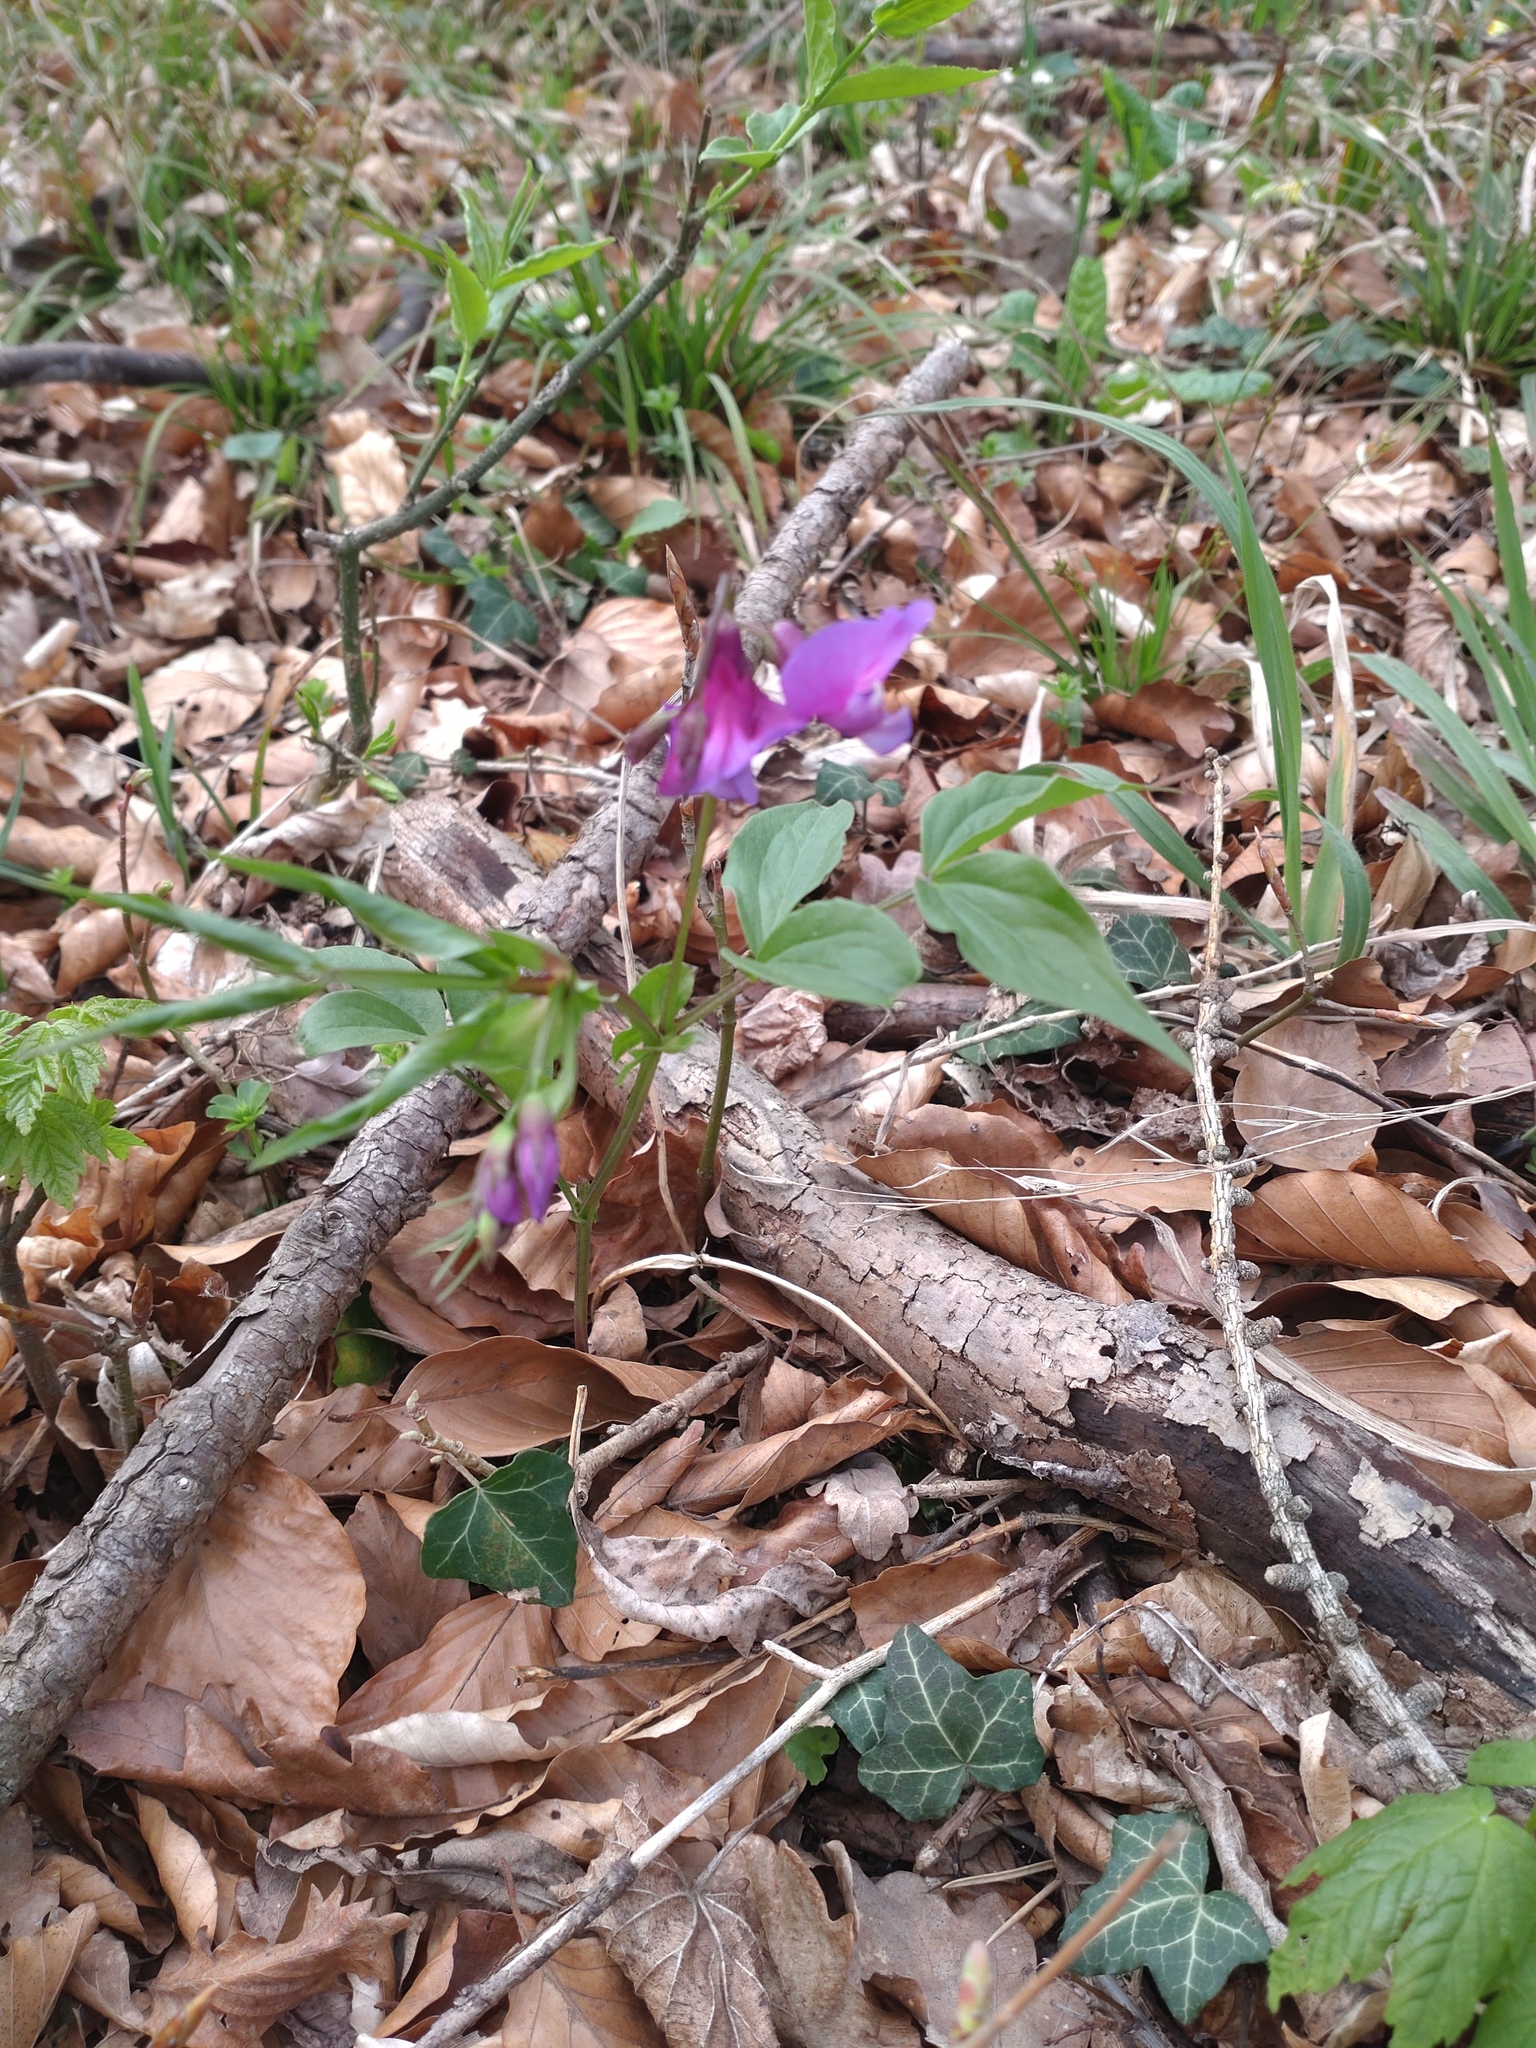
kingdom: Plantae
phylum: Tracheophyta
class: Magnoliopsida
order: Fabales
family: Fabaceae
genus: Lathyrus
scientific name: Lathyrus vernus
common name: Spring pea
